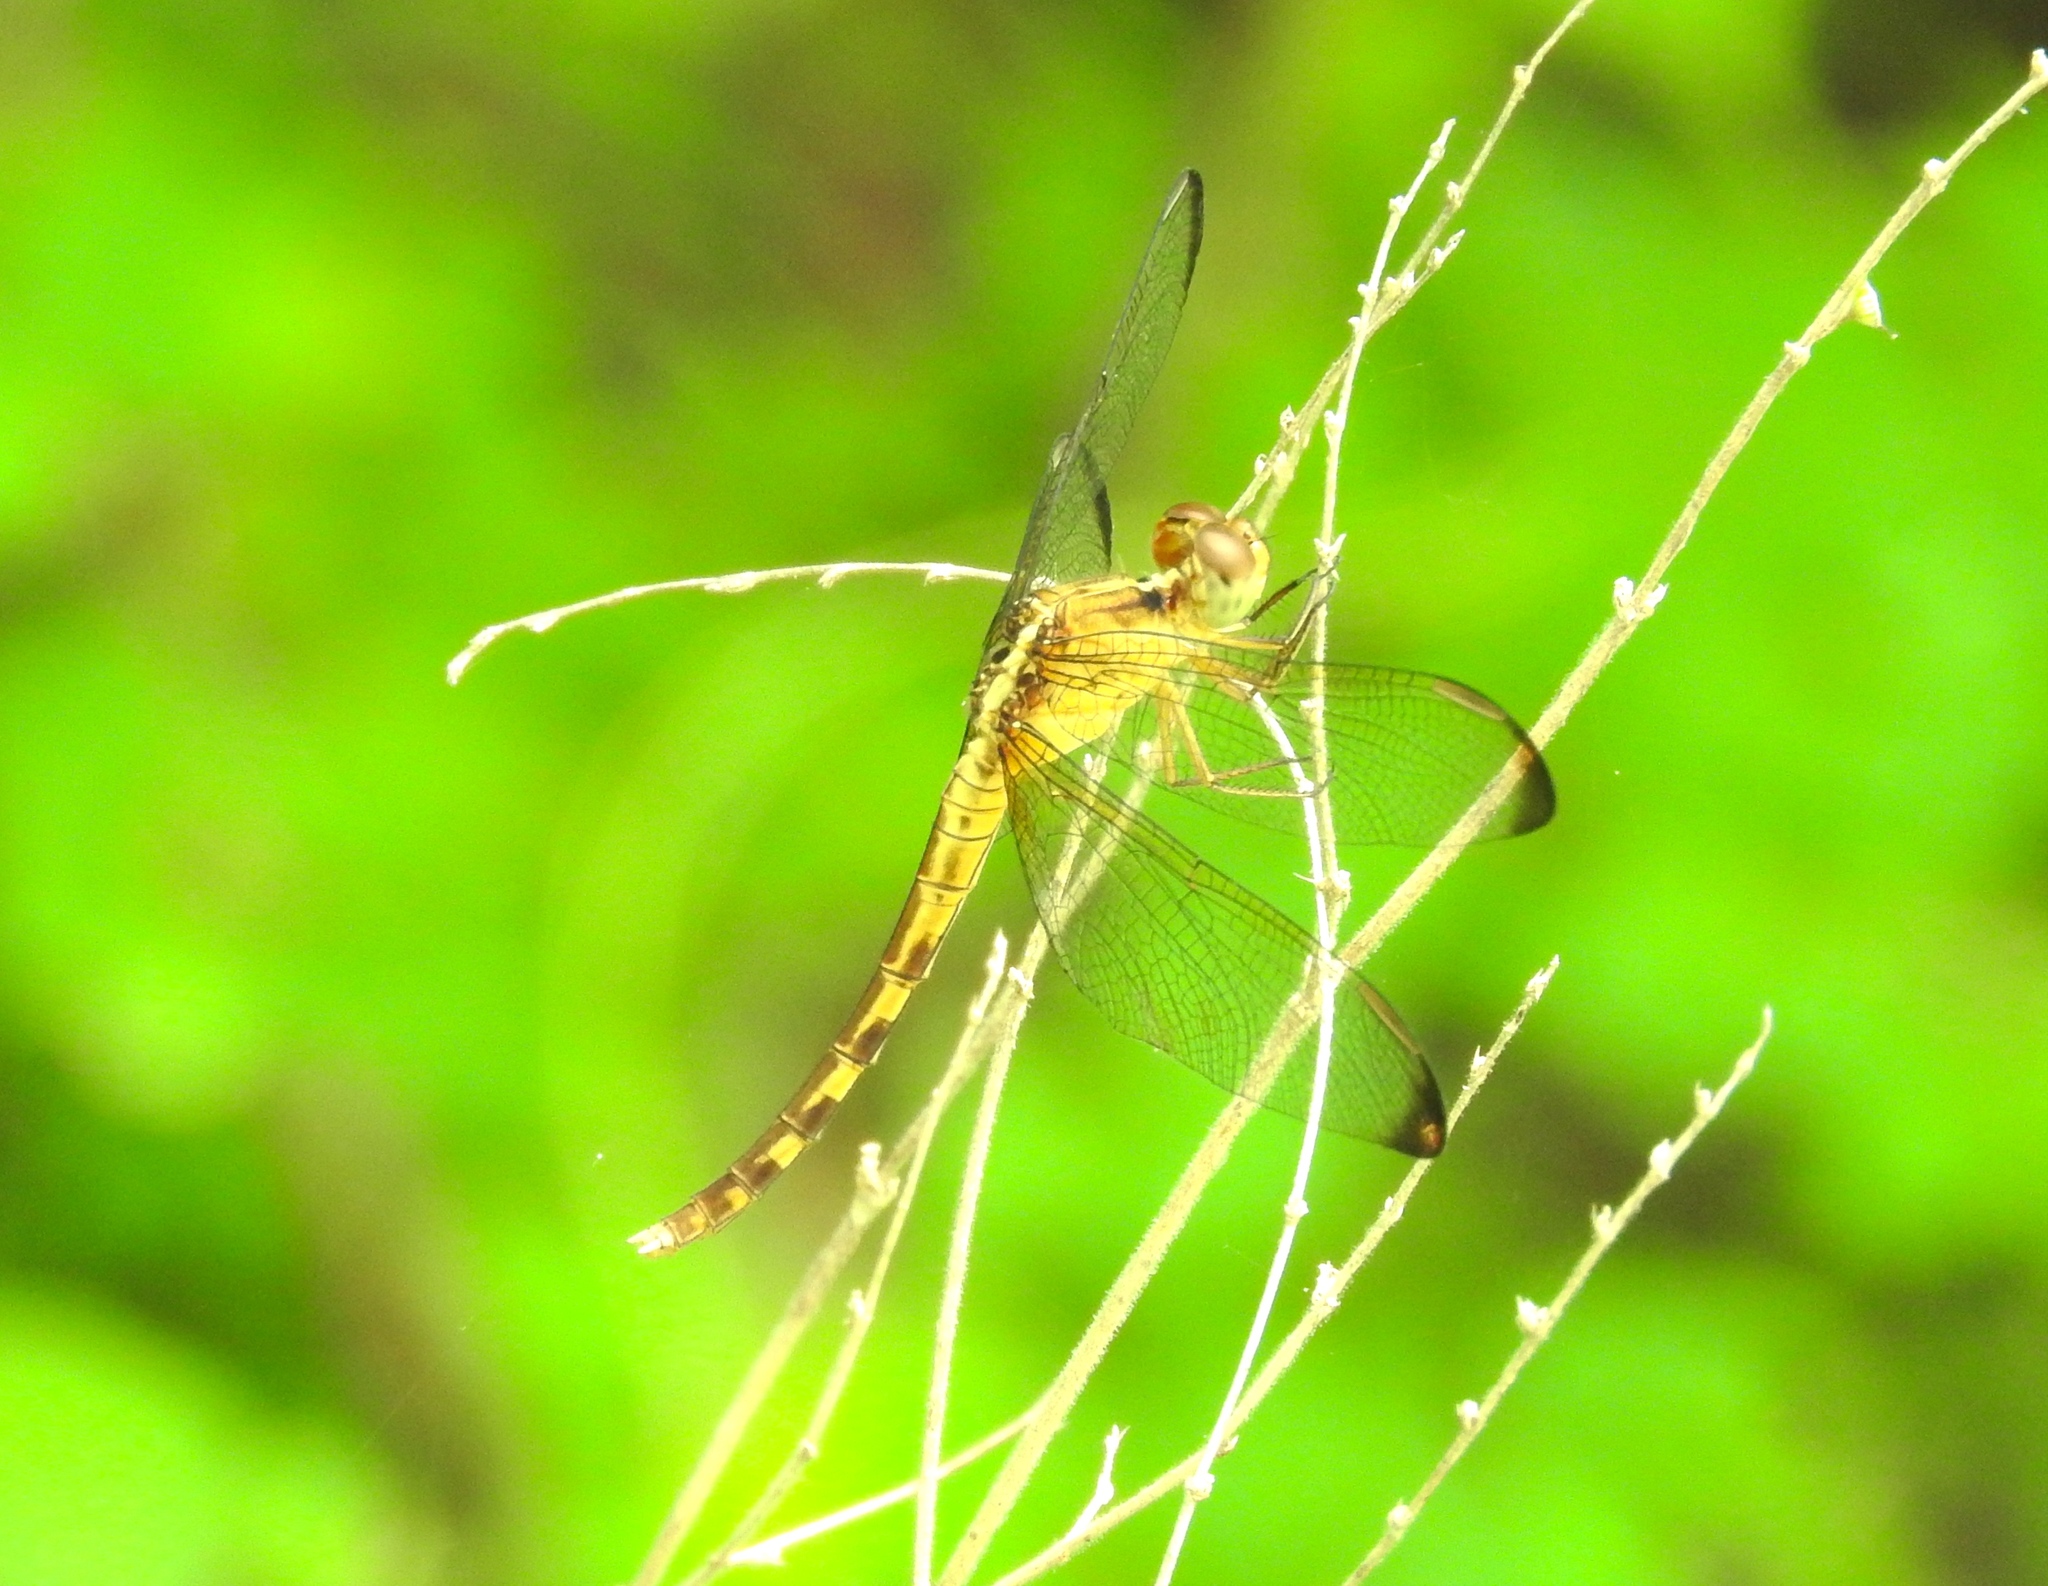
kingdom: Animalia
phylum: Arthropoda
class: Insecta
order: Odonata
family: Libellulidae
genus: Erythrodiplax
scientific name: Erythrodiplax funerea
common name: Black-winged dragonlet
